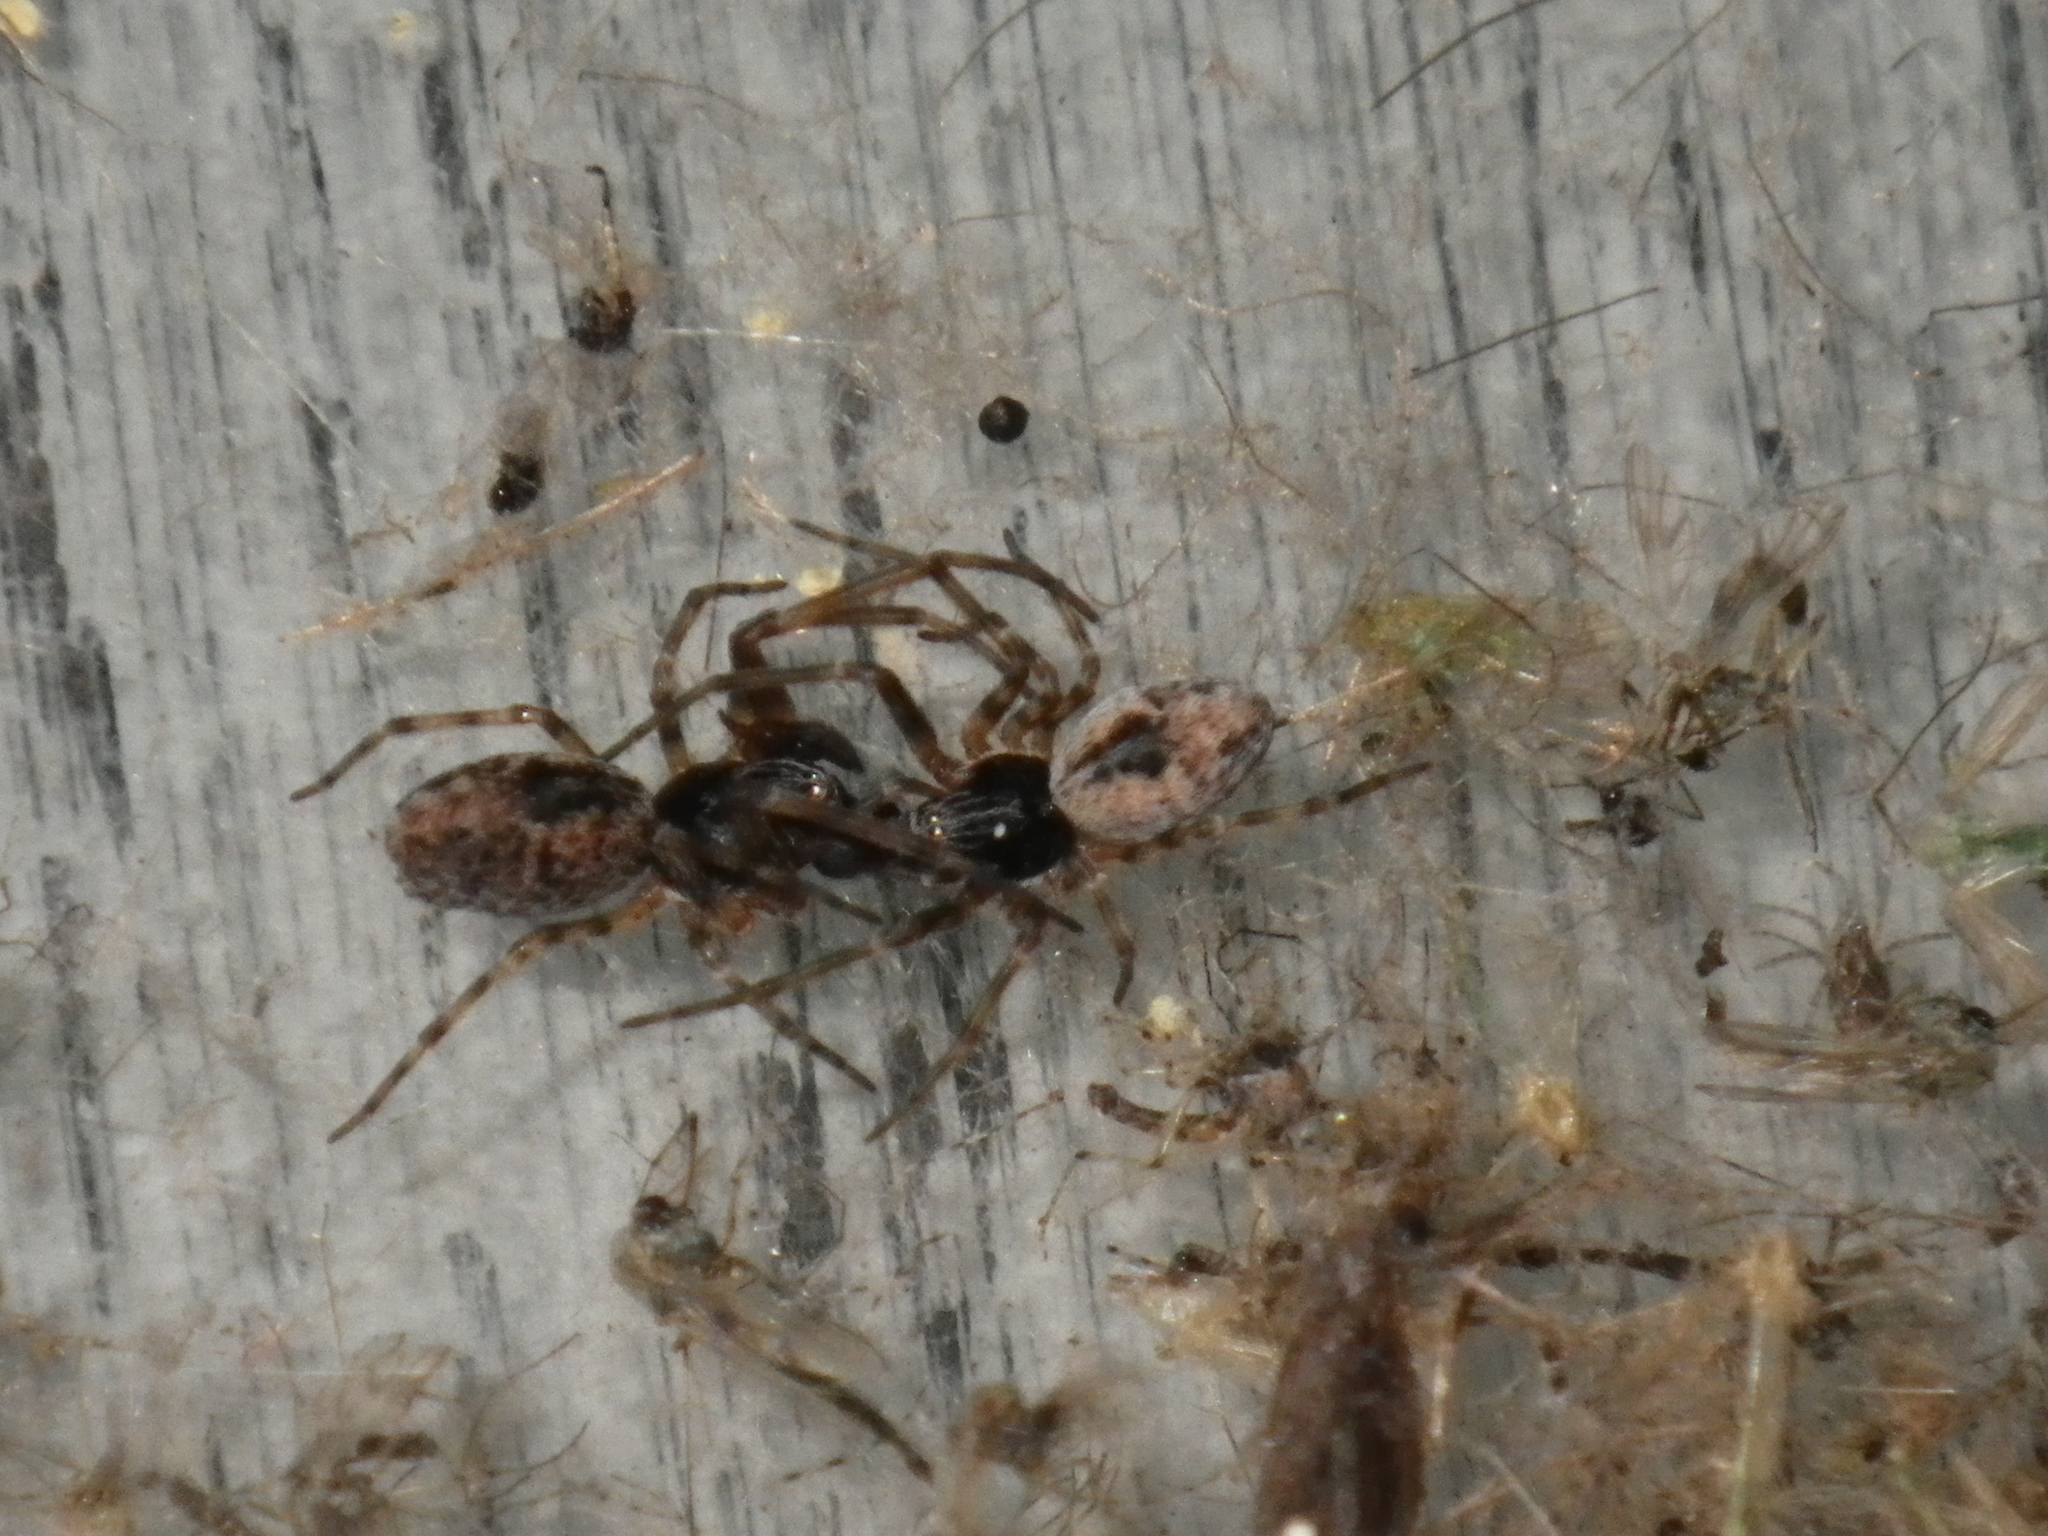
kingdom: Animalia
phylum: Arthropoda
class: Arachnida
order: Araneae
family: Dictynidae
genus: Dictyna
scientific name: Dictyna calcarata
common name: Mesh weaver
